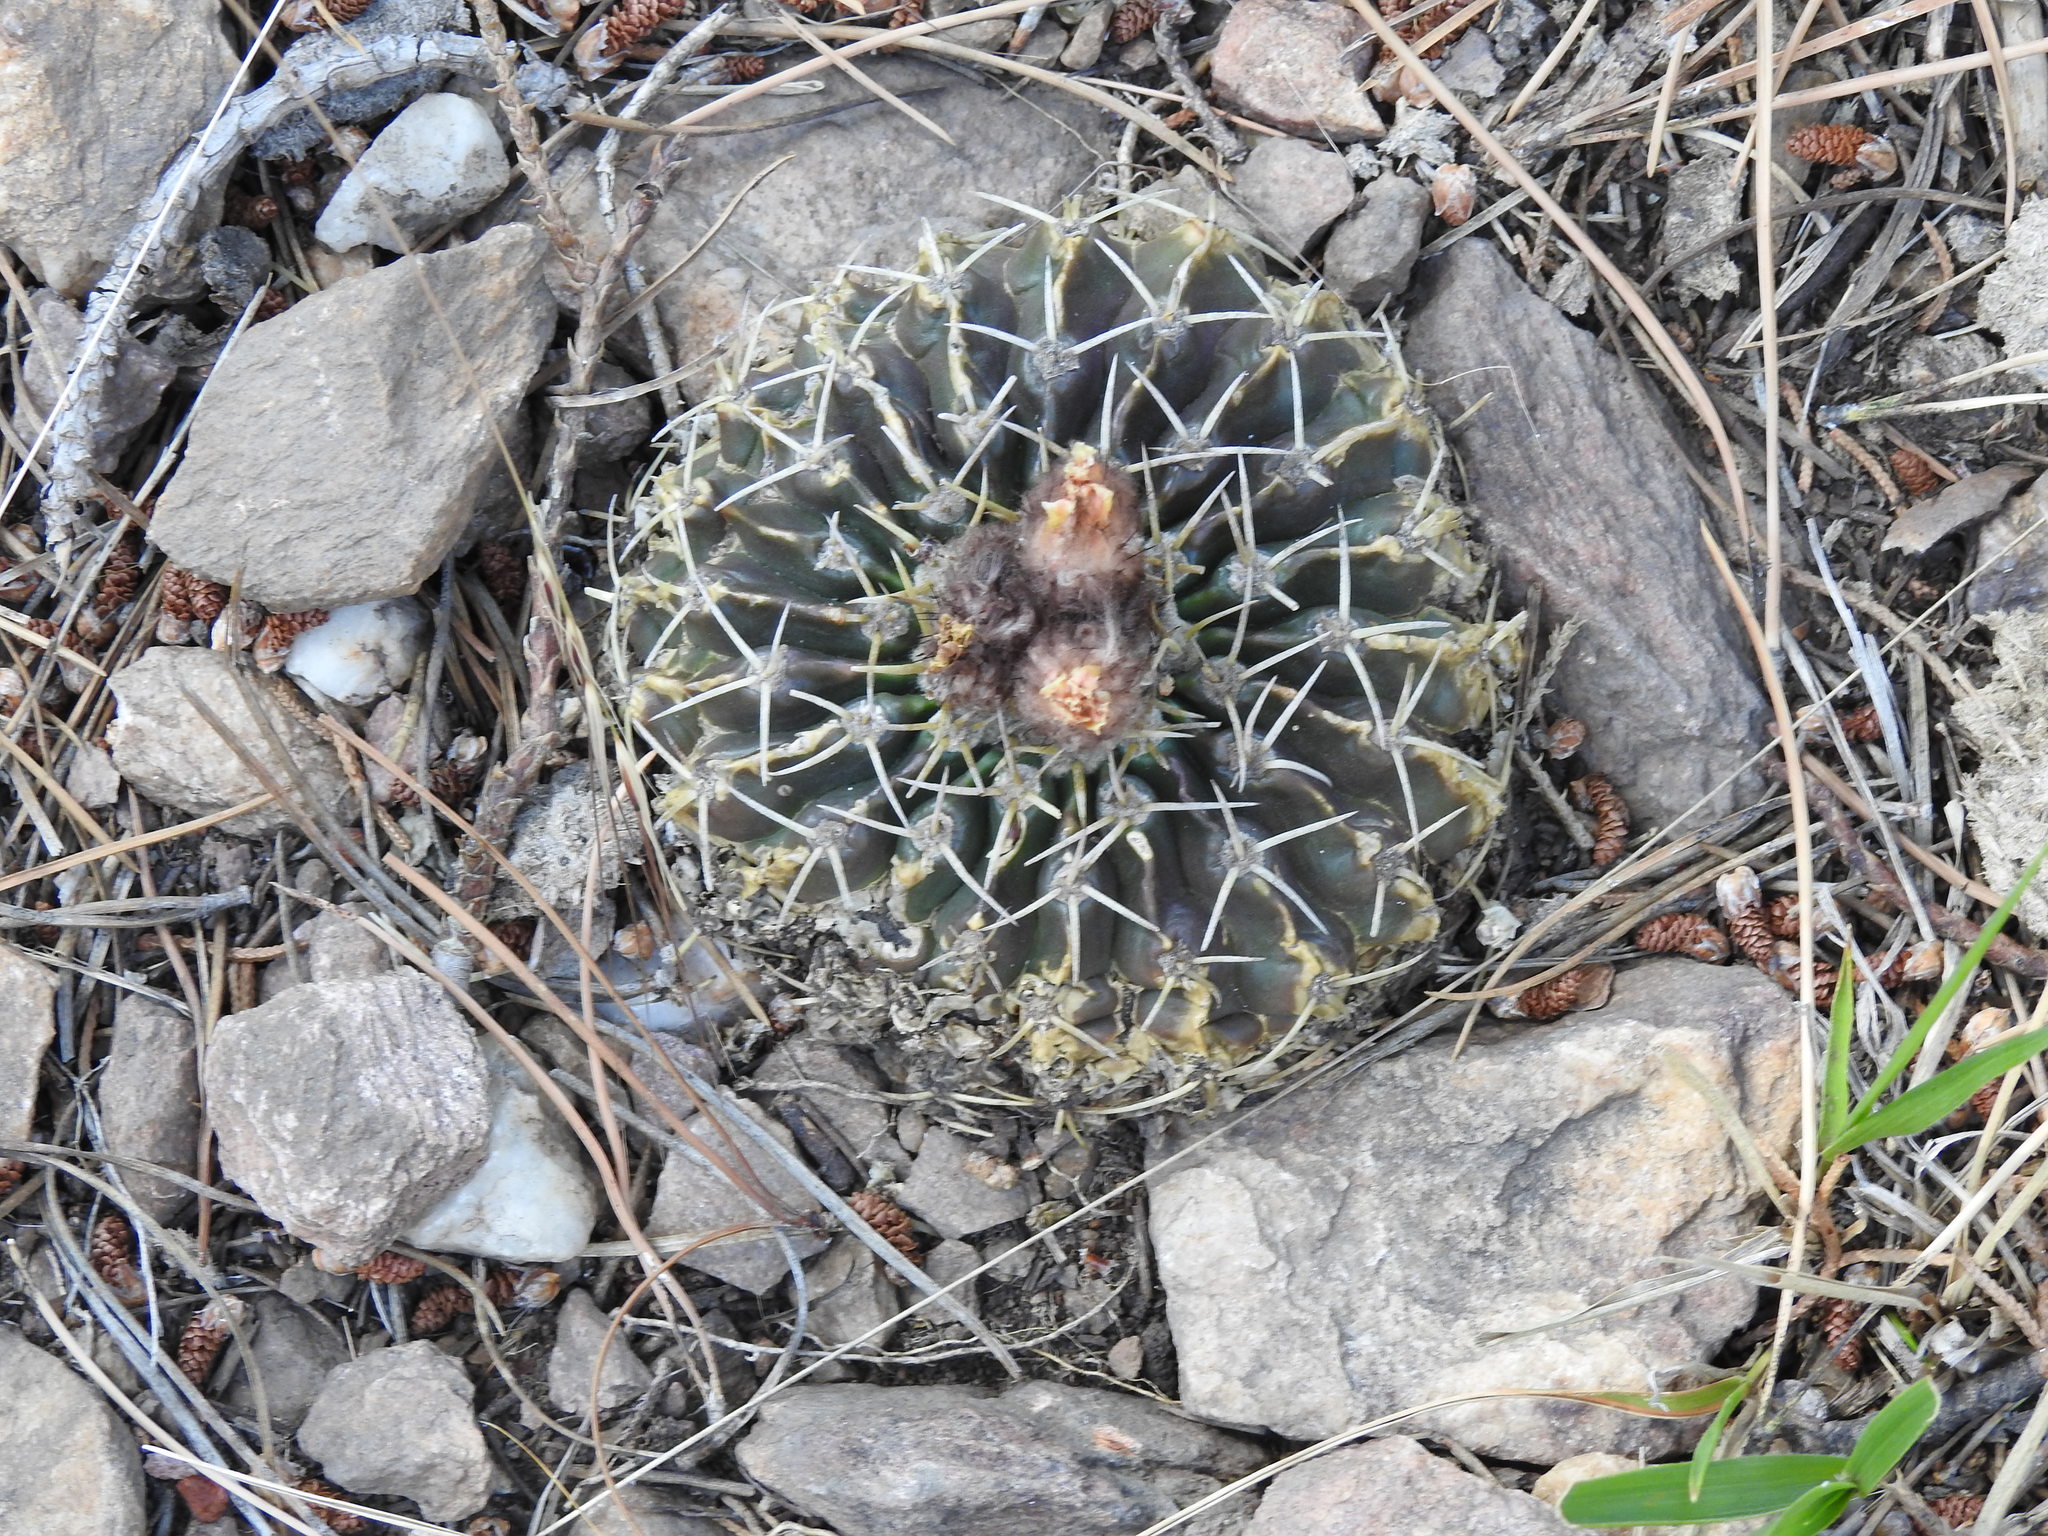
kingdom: Plantae
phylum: Tracheophyta
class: Magnoliopsida
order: Caryophyllales
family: Cactaceae
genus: Parodia
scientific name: Parodia erinacea
